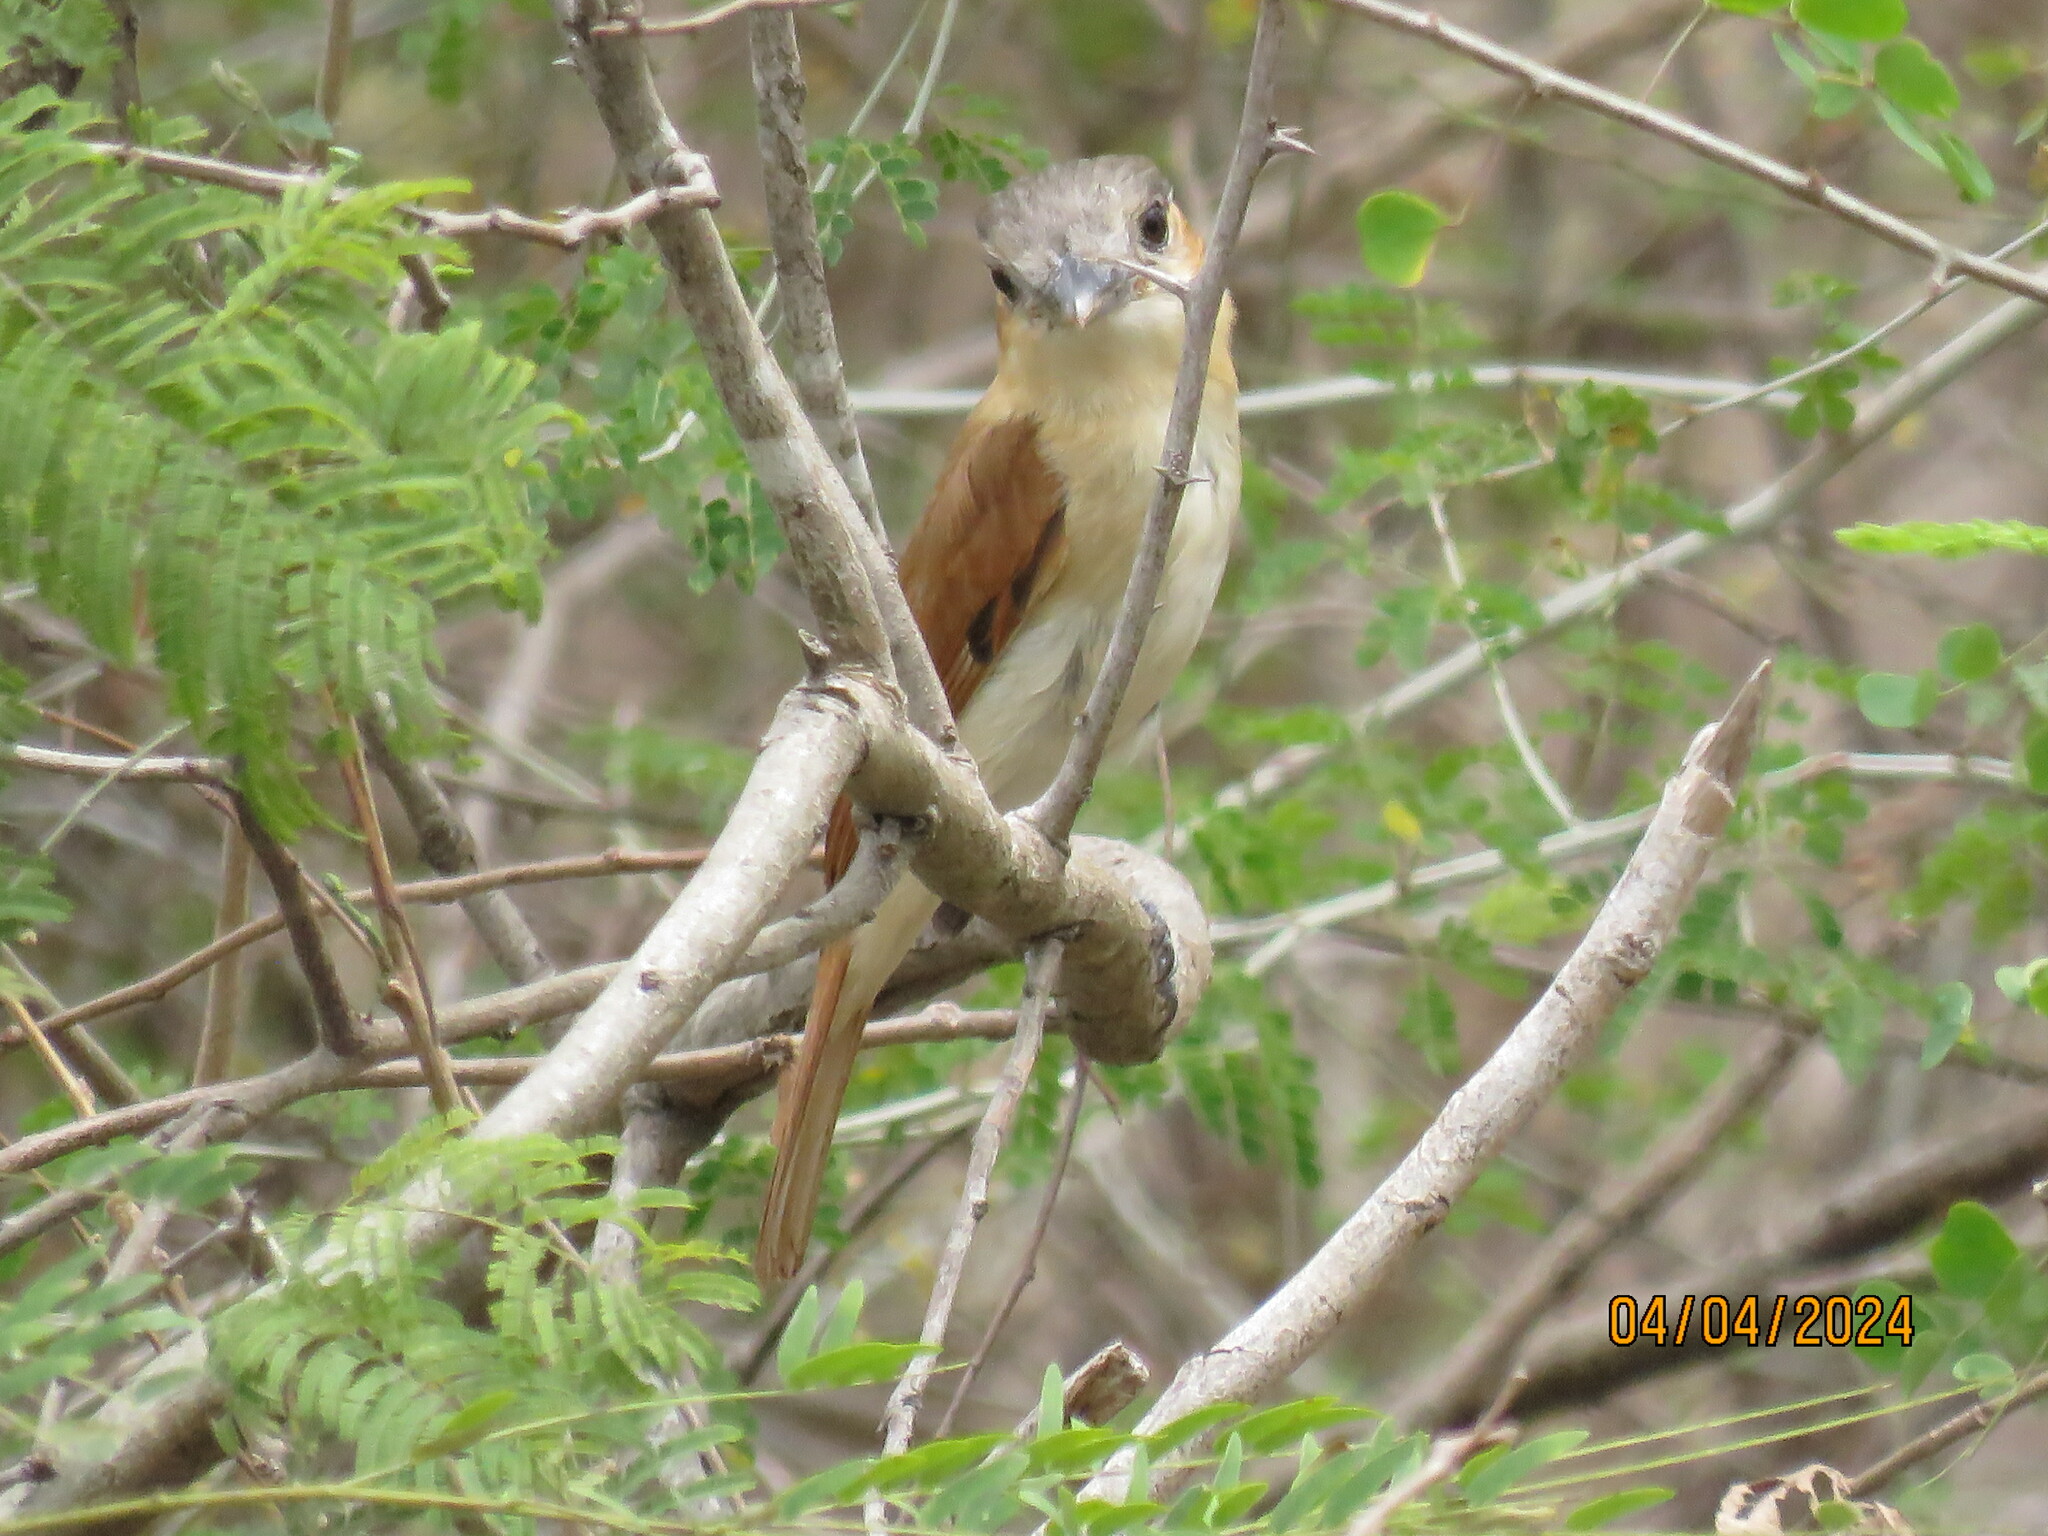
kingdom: Animalia
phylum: Chordata
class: Aves
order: Passeriformes
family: Cotingidae
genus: Pachyramphus
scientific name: Pachyramphus aglaiae
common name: Rose-throated becard
